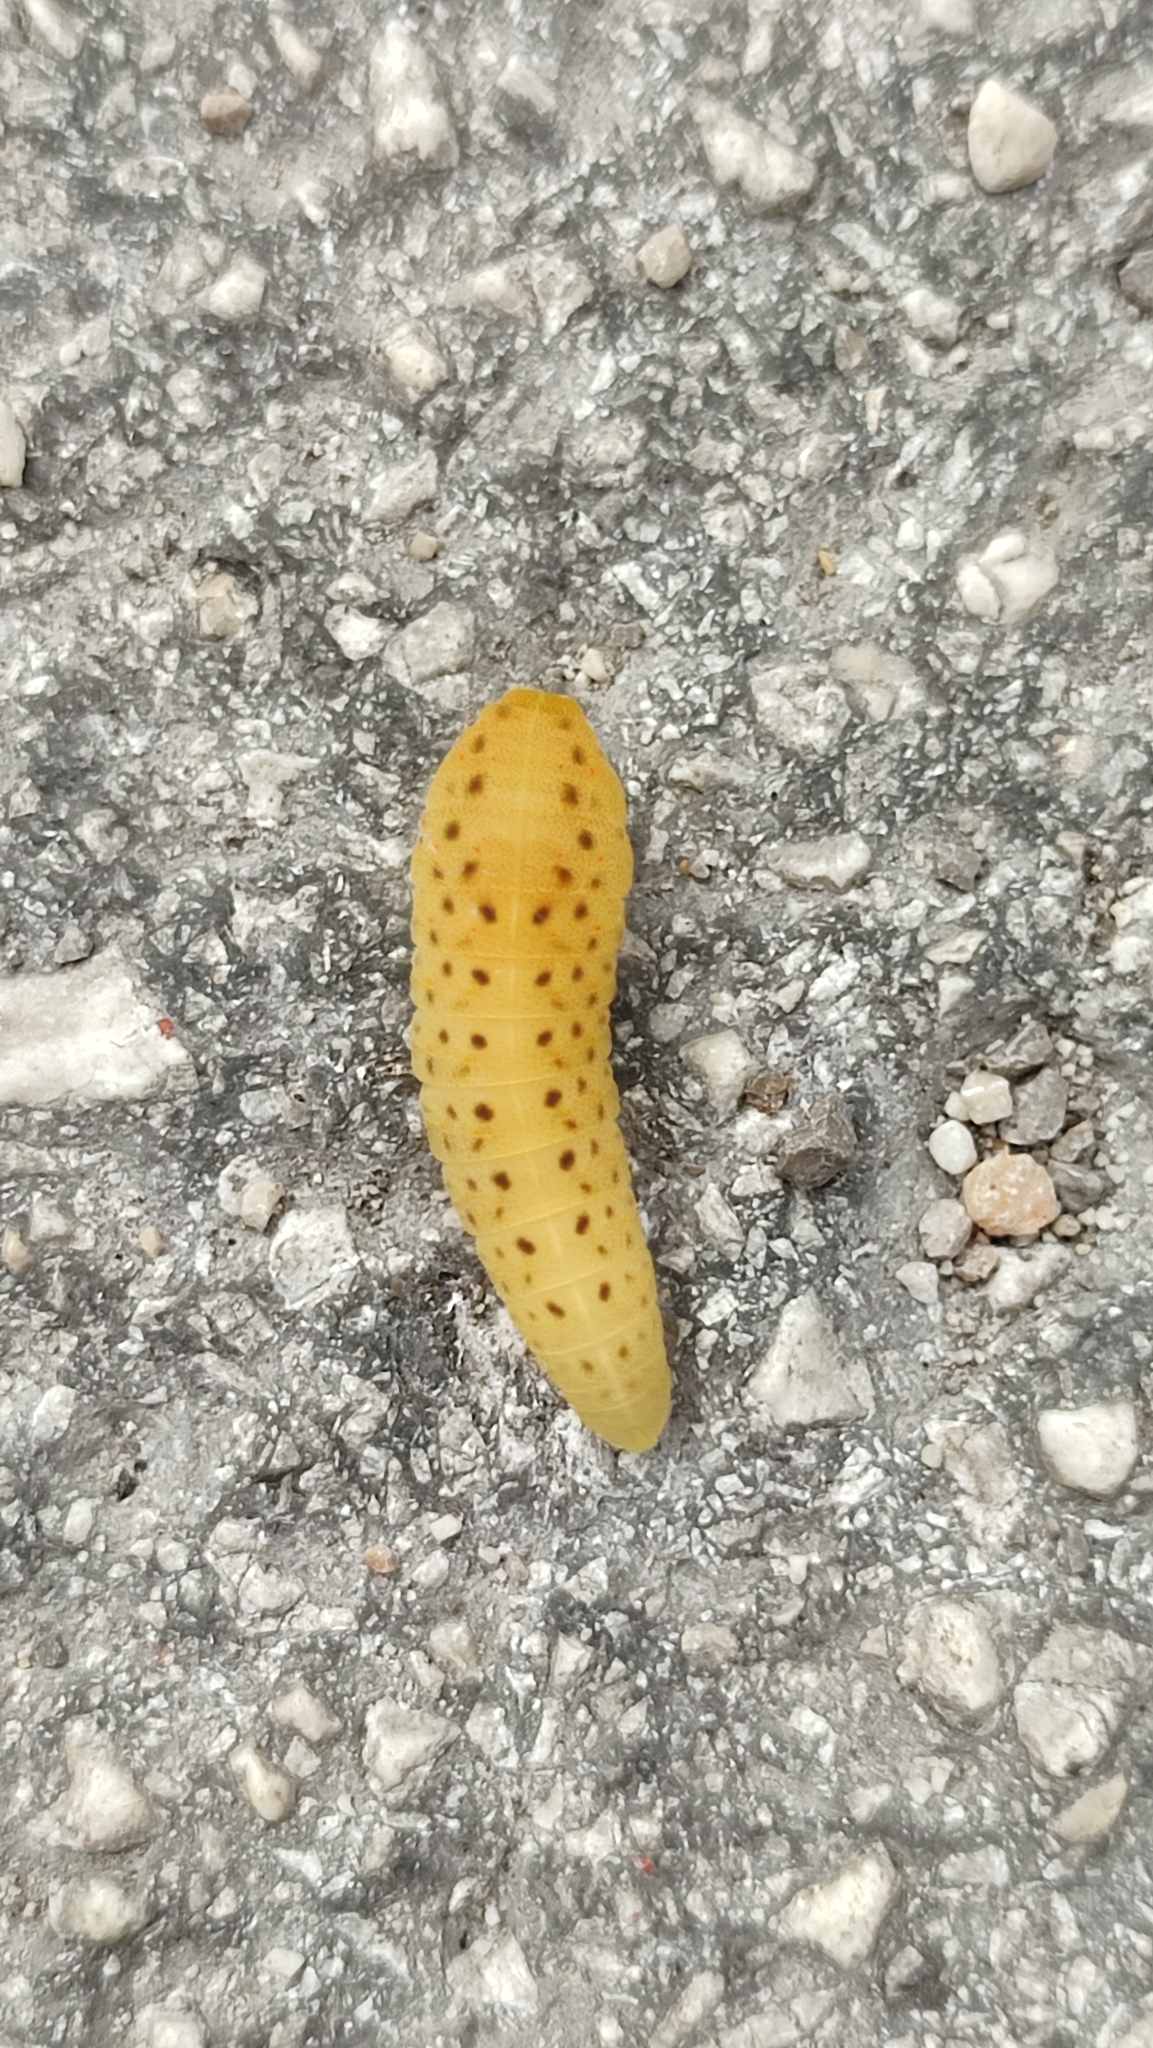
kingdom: Animalia
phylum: Arthropoda
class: Insecta
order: Lepidoptera
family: Papilionidae
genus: Iphiclides
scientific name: Iphiclides podalirius
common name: Scarce swallowtail
